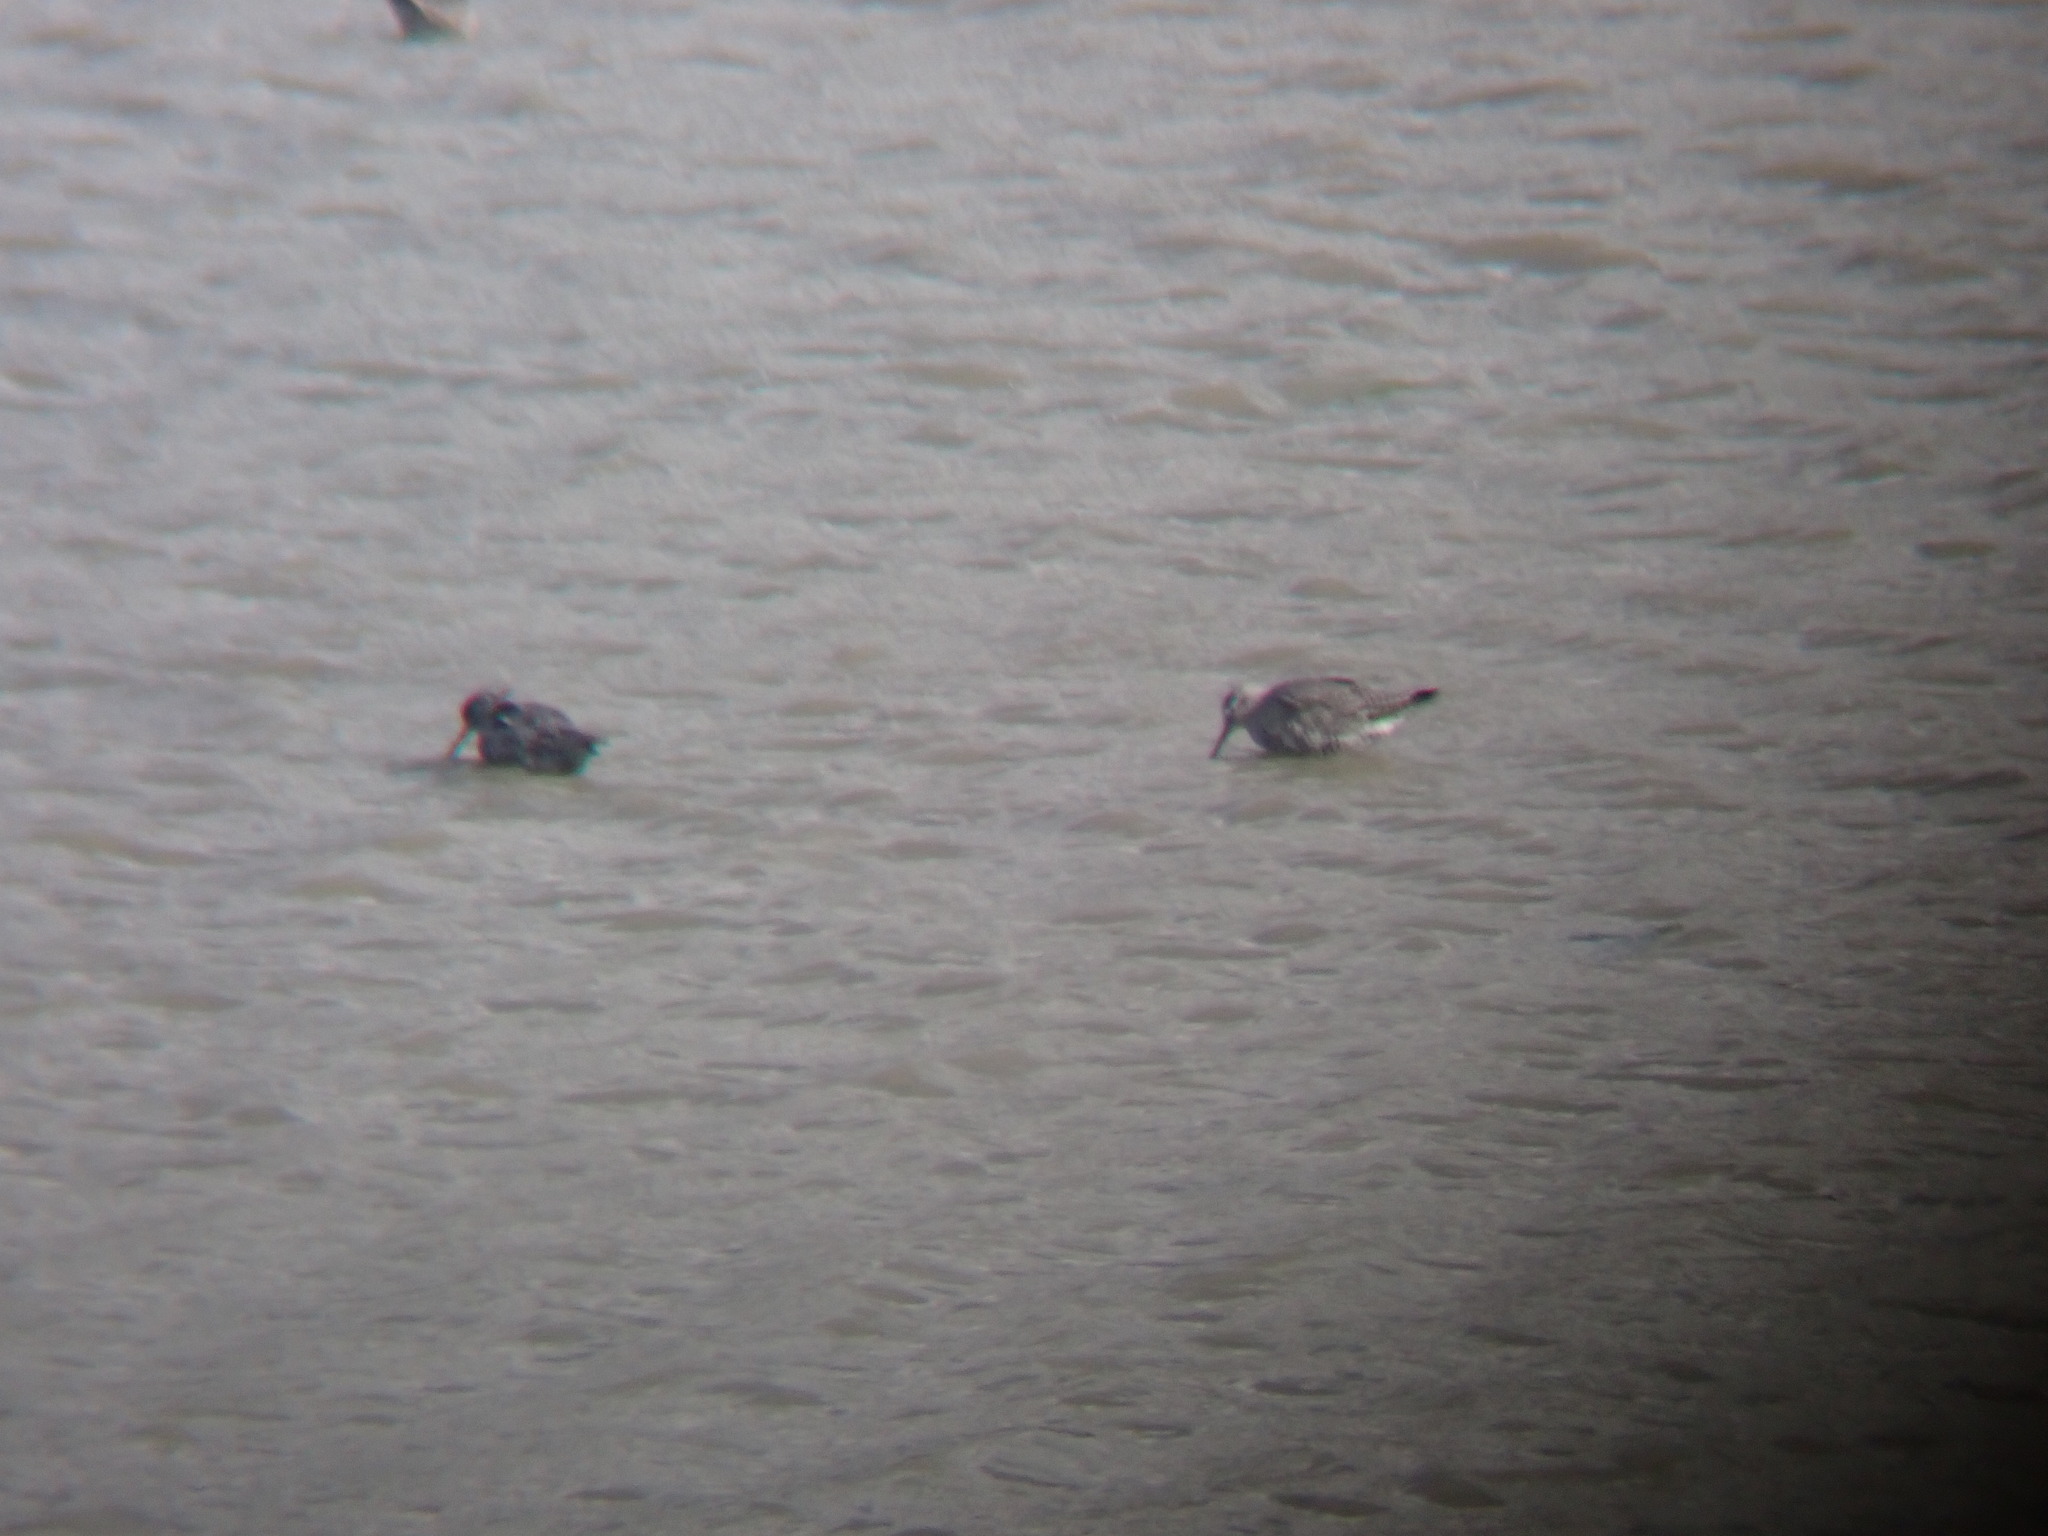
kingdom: Animalia
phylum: Chordata
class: Aves
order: Charadriiformes
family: Scolopacidae
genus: Tringa
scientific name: Tringa erythropus
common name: Spotted redshank
